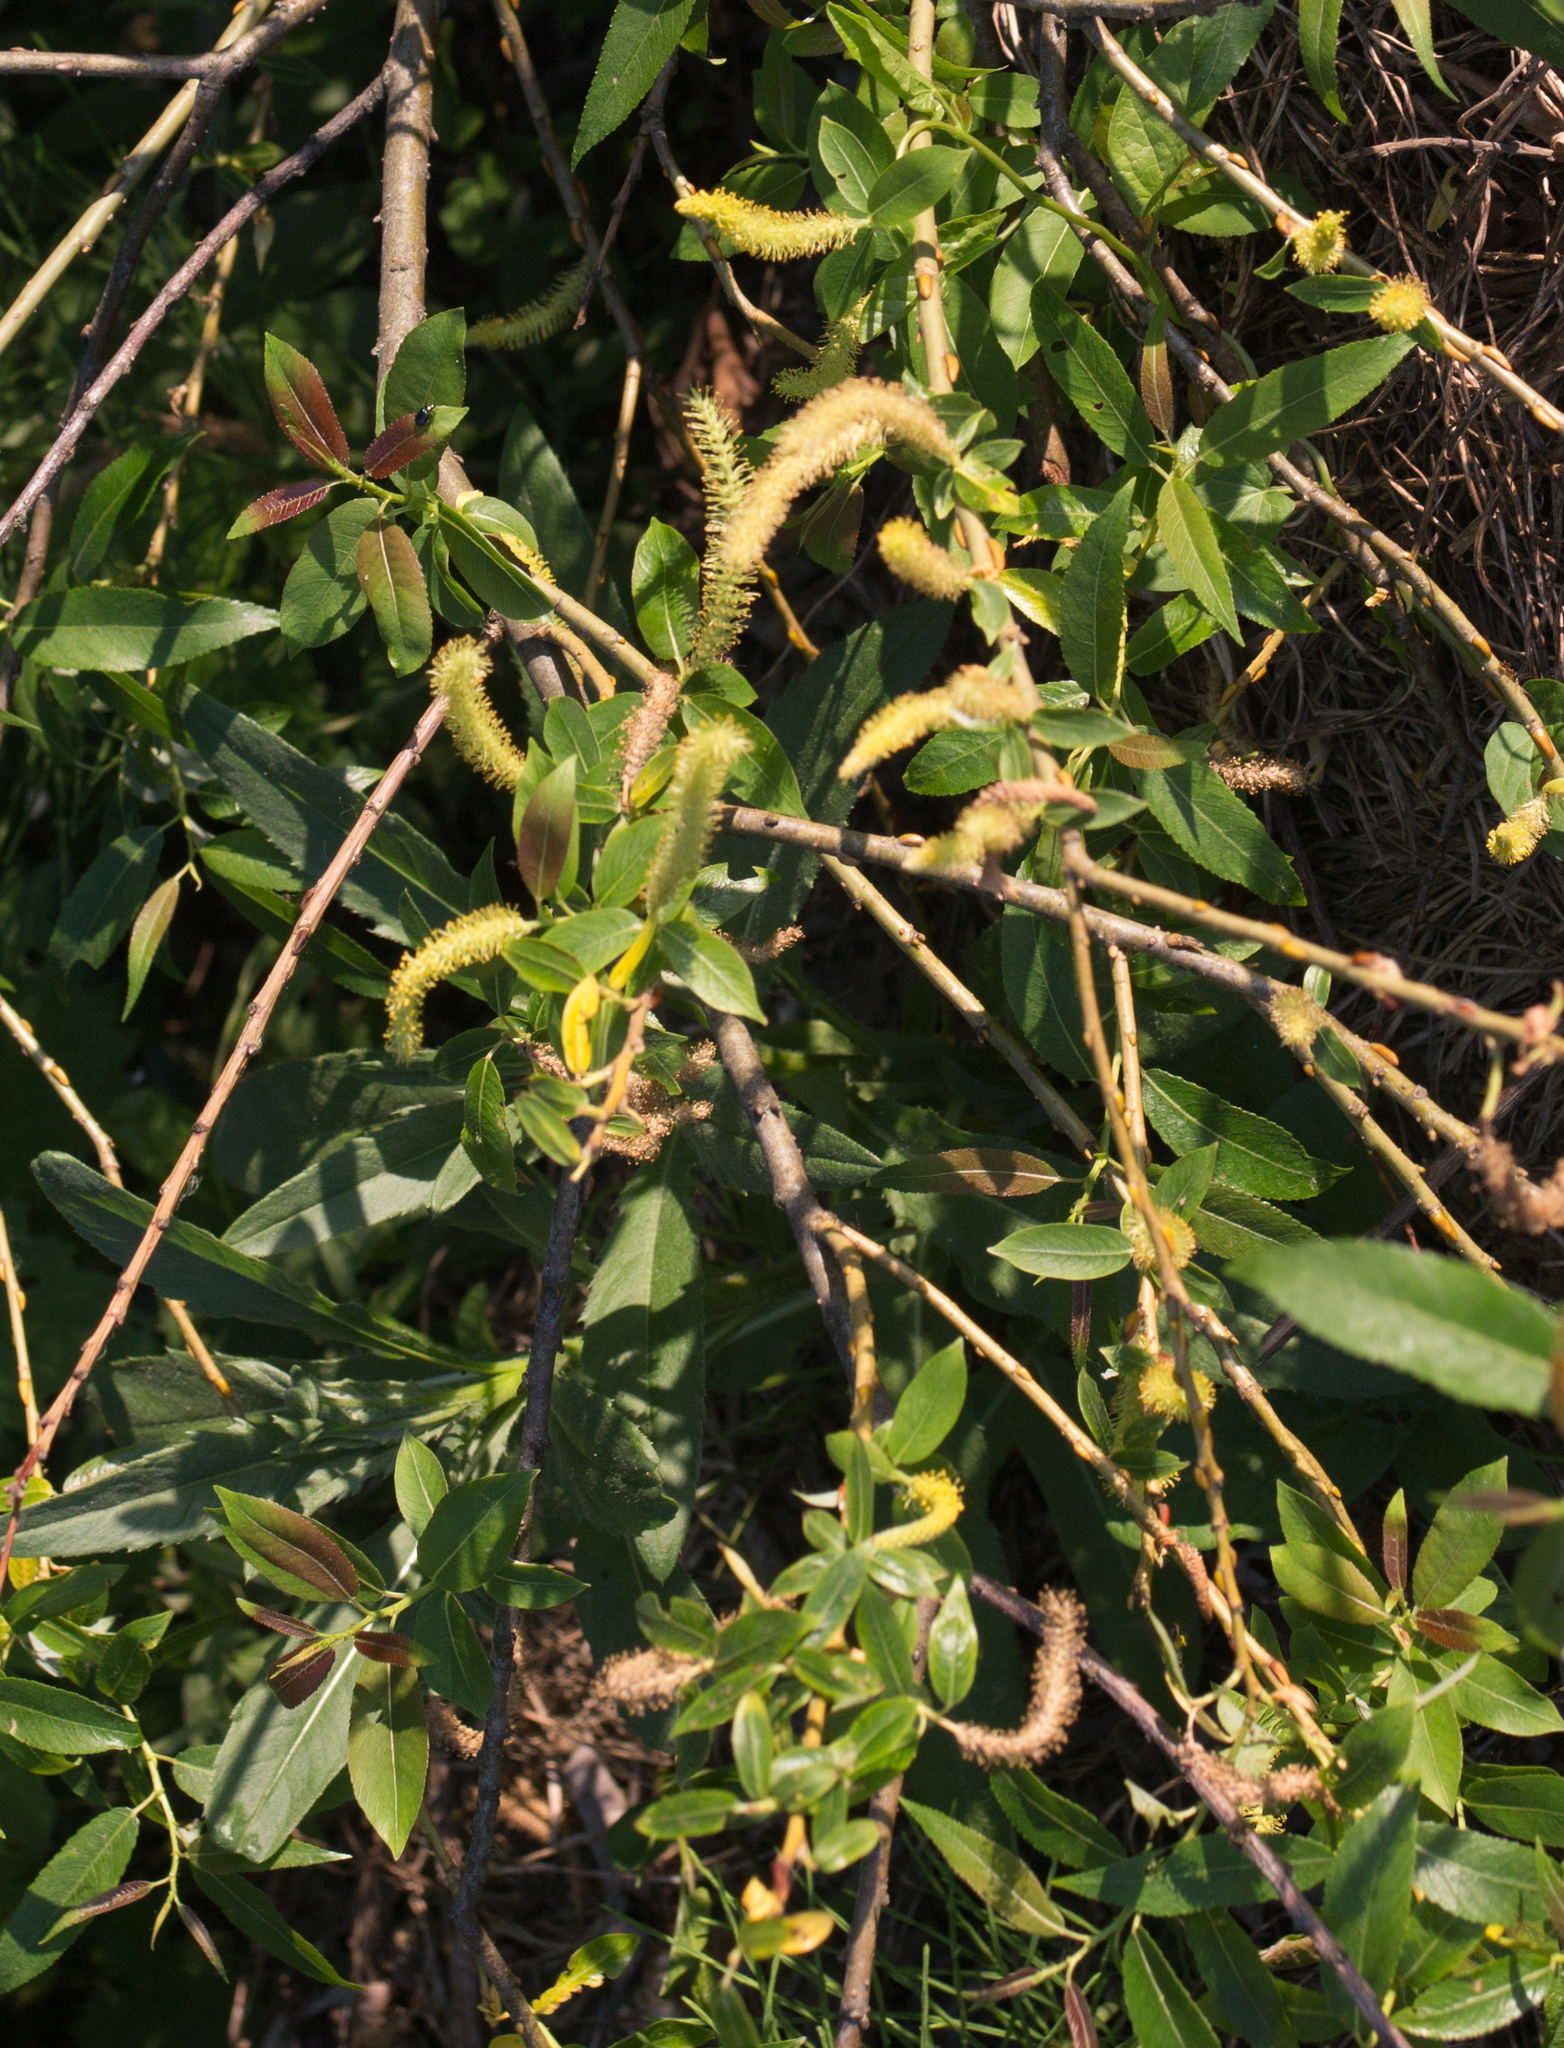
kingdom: Plantae
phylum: Tracheophyta
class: Magnoliopsida
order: Malpighiales
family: Salicaceae
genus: Salix
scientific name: Salix triandra
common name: Almond willow
